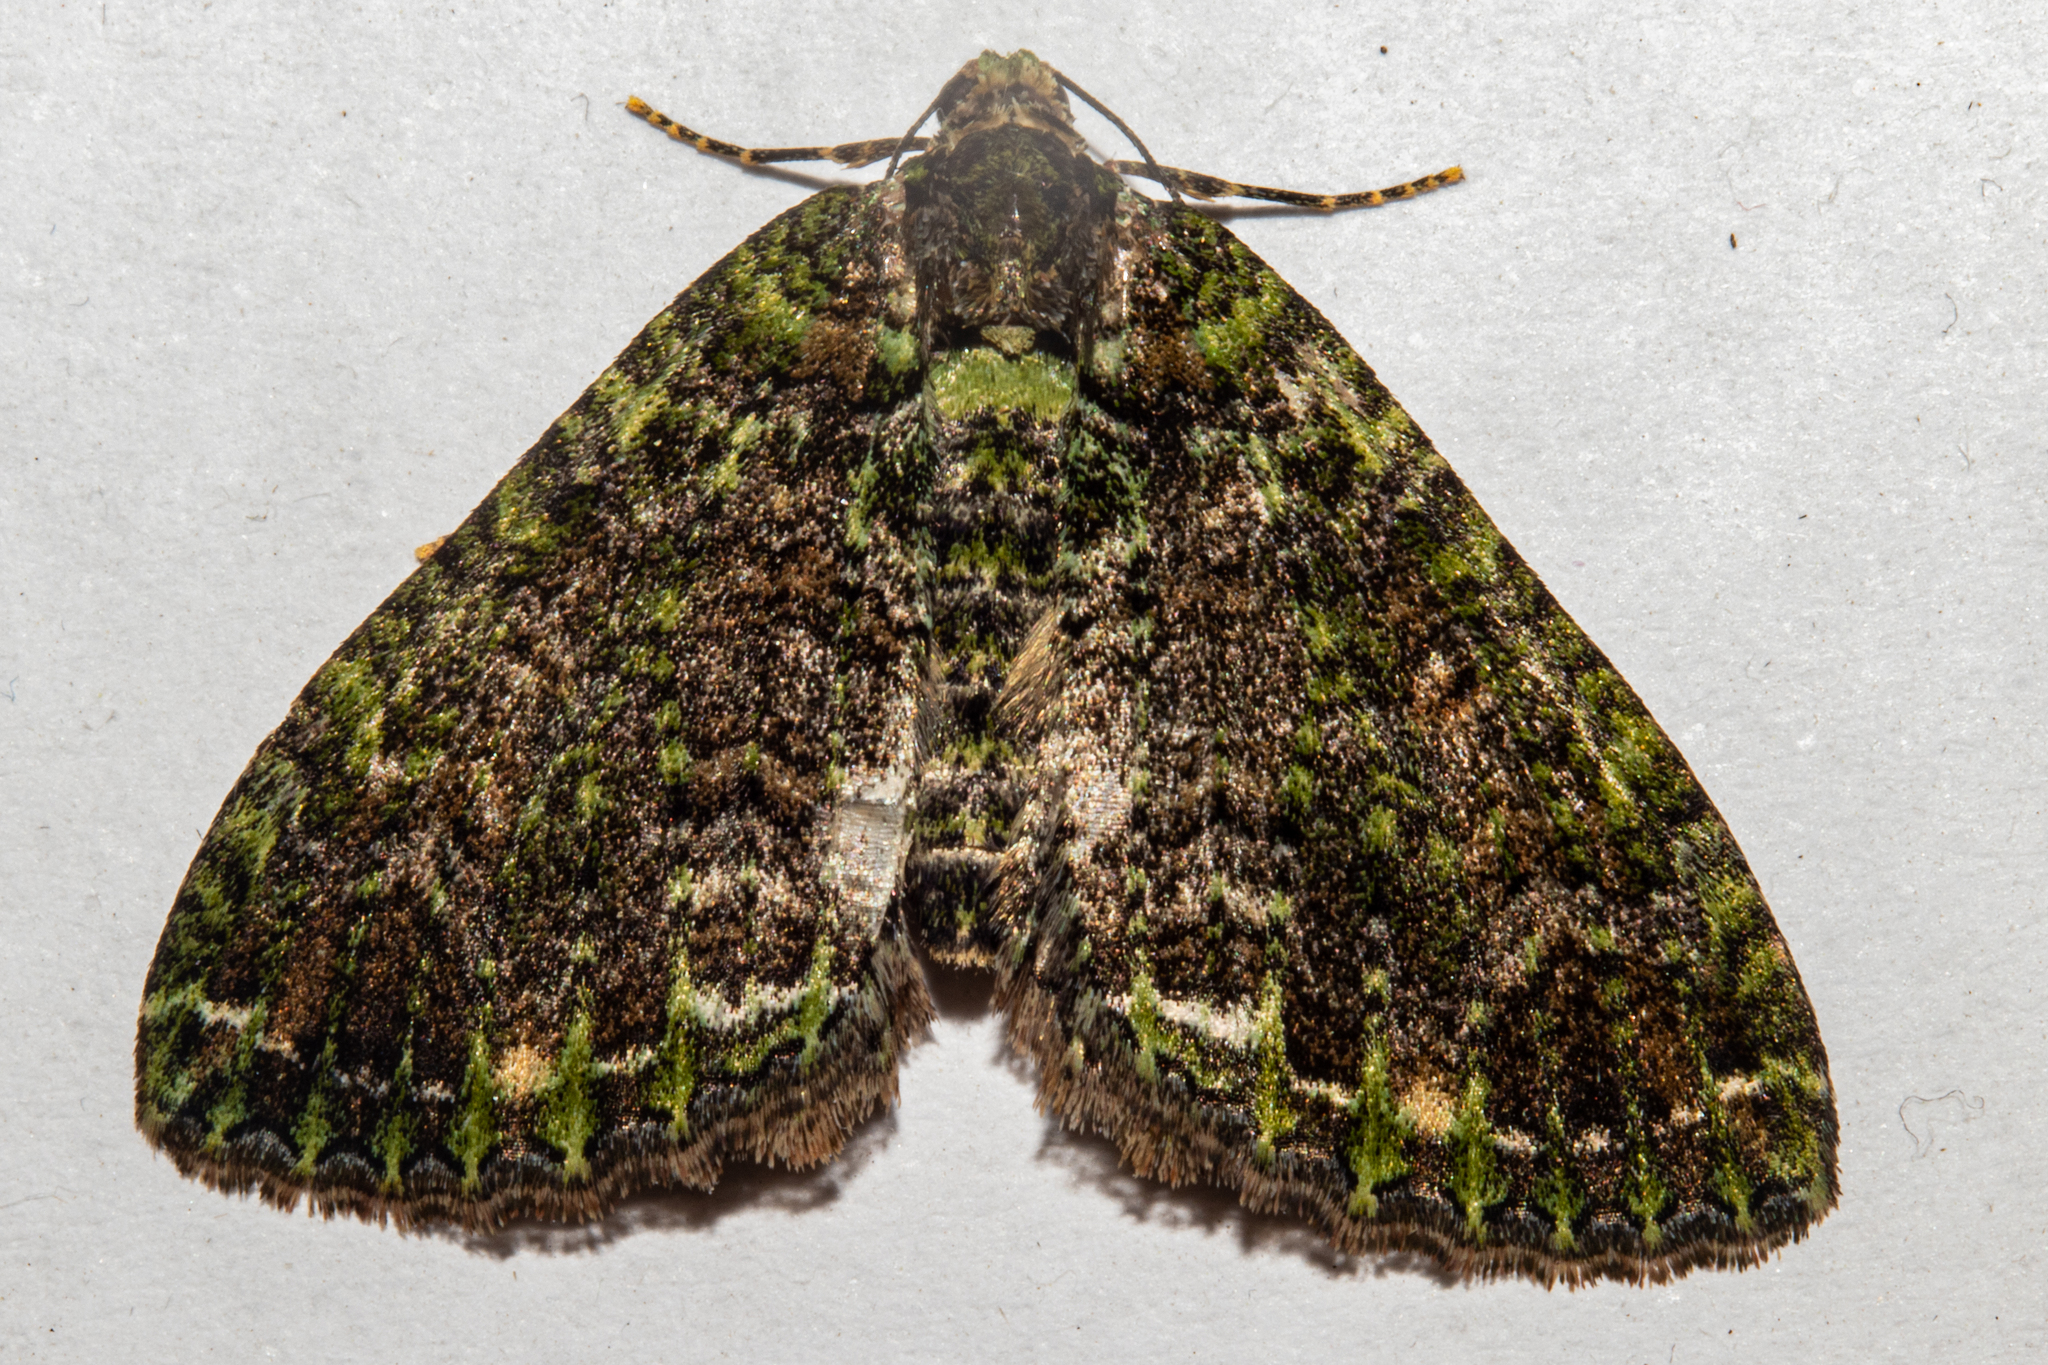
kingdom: Animalia
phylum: Arthropoda
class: Insecta
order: Lepidoptera
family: Geometridae
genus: Austrocidaria
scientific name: Austrocidaria callichlora
